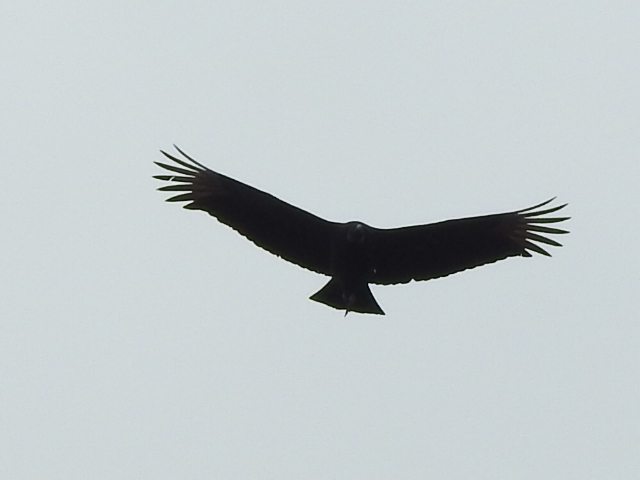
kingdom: Animalia
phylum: Chordata
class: Aves
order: Accipitriformes
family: Cathartidae
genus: Coragyps
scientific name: Coragyps atratus
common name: Black vulture
